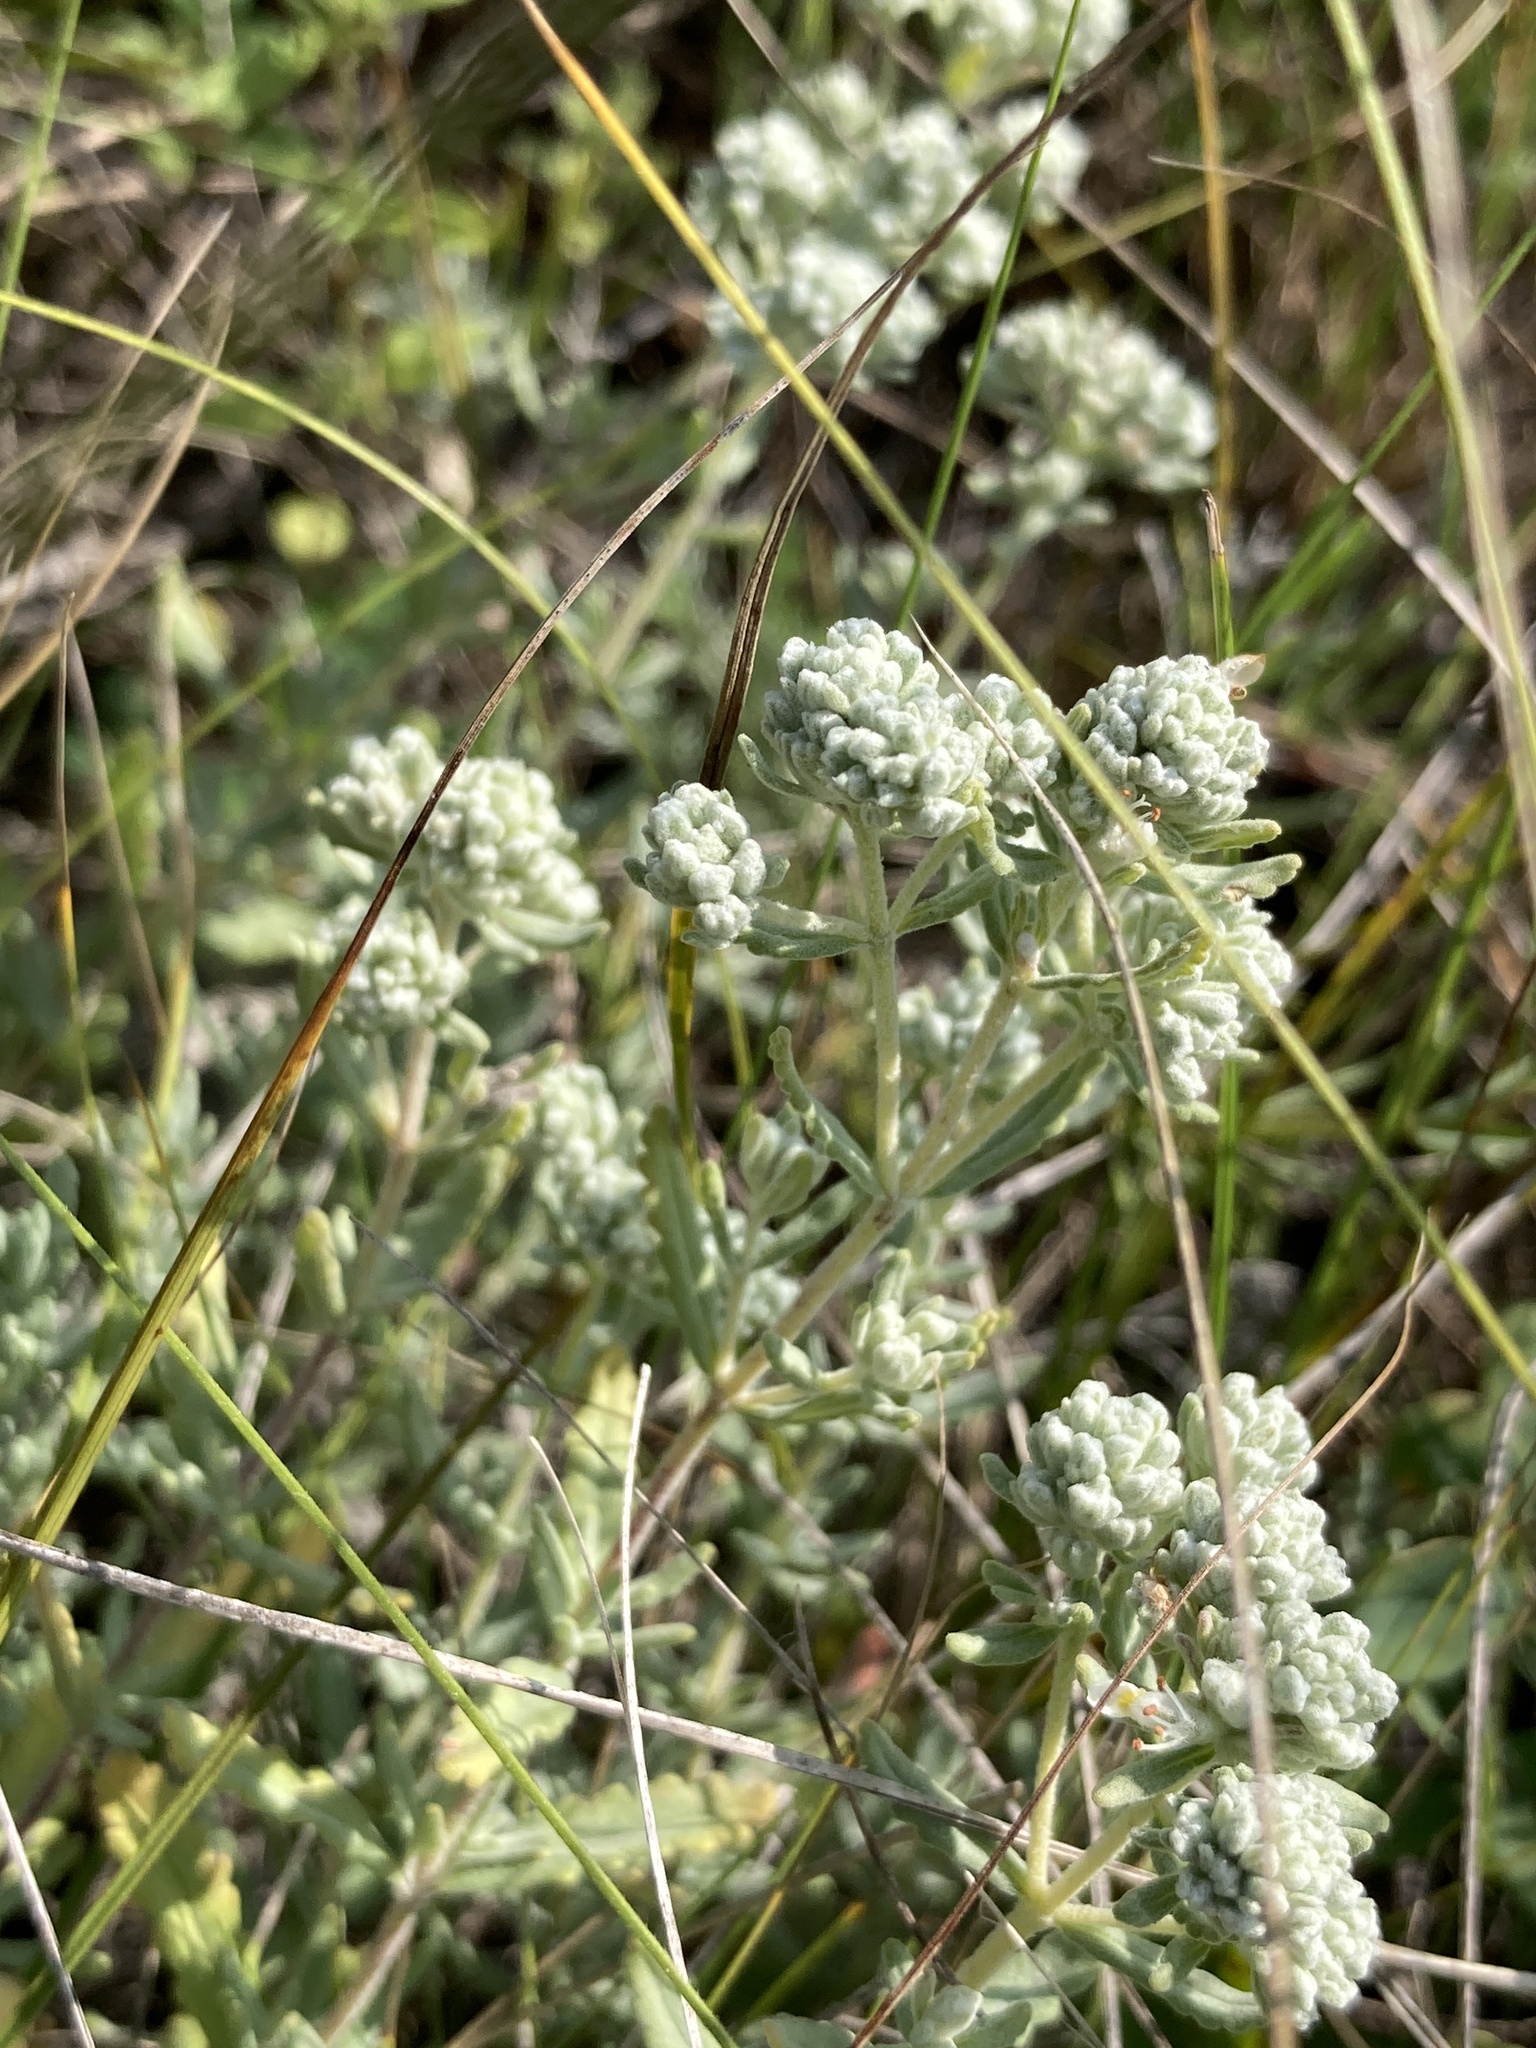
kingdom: Plantae
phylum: Tracheophyta
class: Magnoliopsida
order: Lamiales
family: Lamiaceae
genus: Teucrium
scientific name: Teucrium polium
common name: Poley
